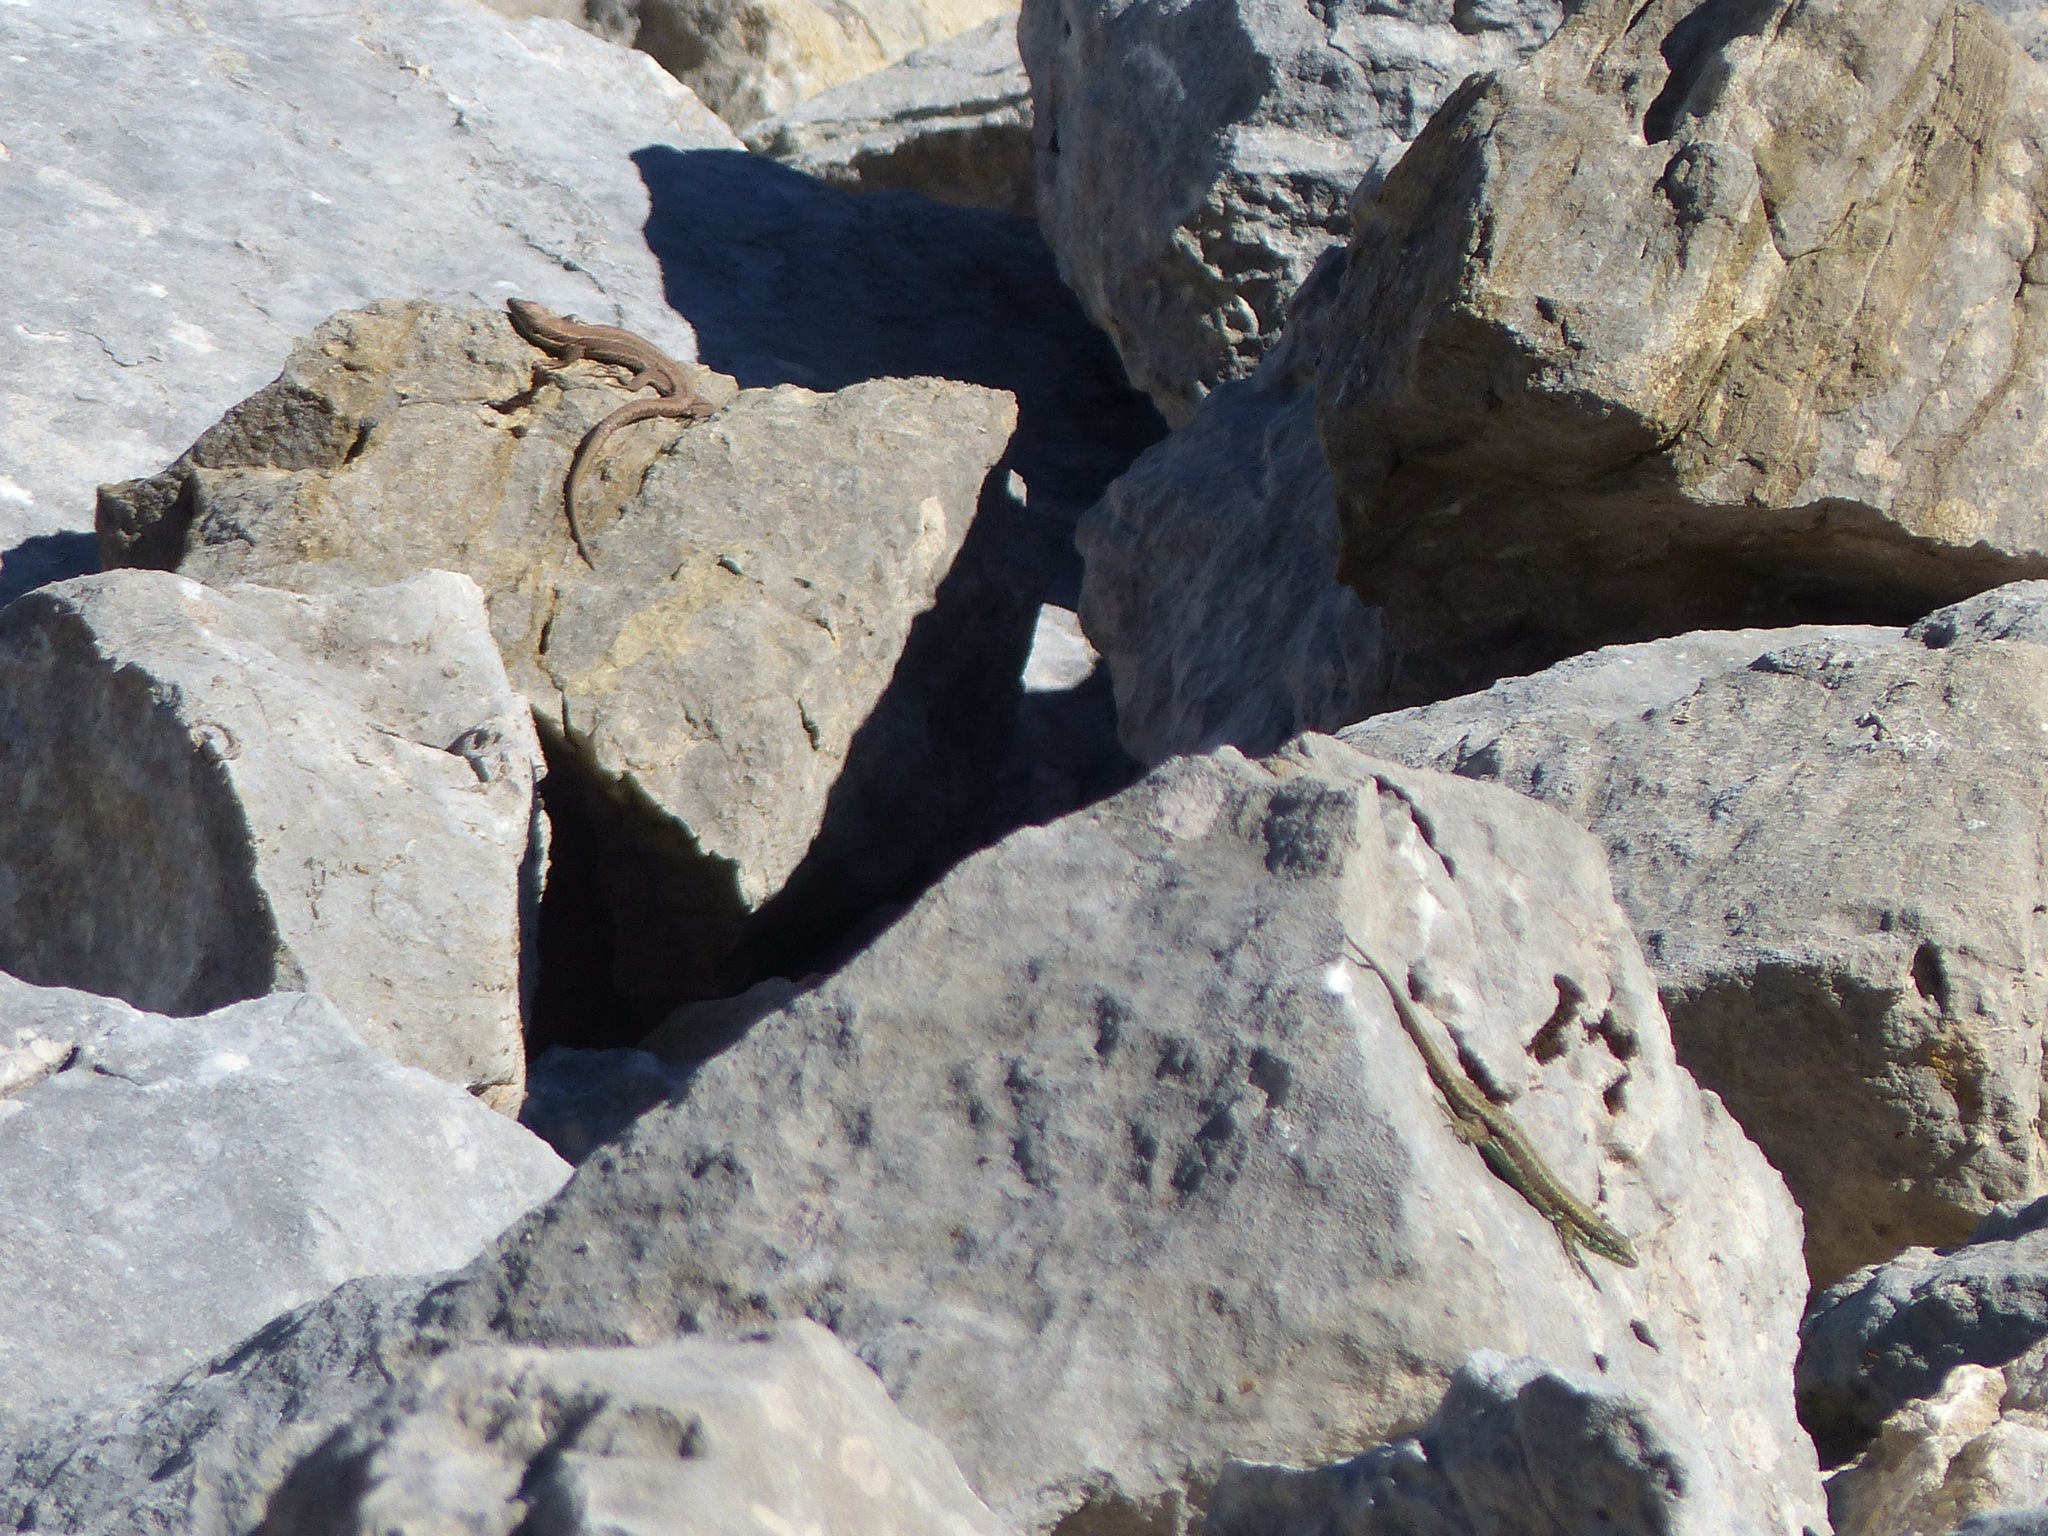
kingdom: Animalia
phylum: Chordata
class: Squamata
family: Lacertidae
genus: Iberolacerta
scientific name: Iberolacerta monticola
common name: Iberian mountain lizard
